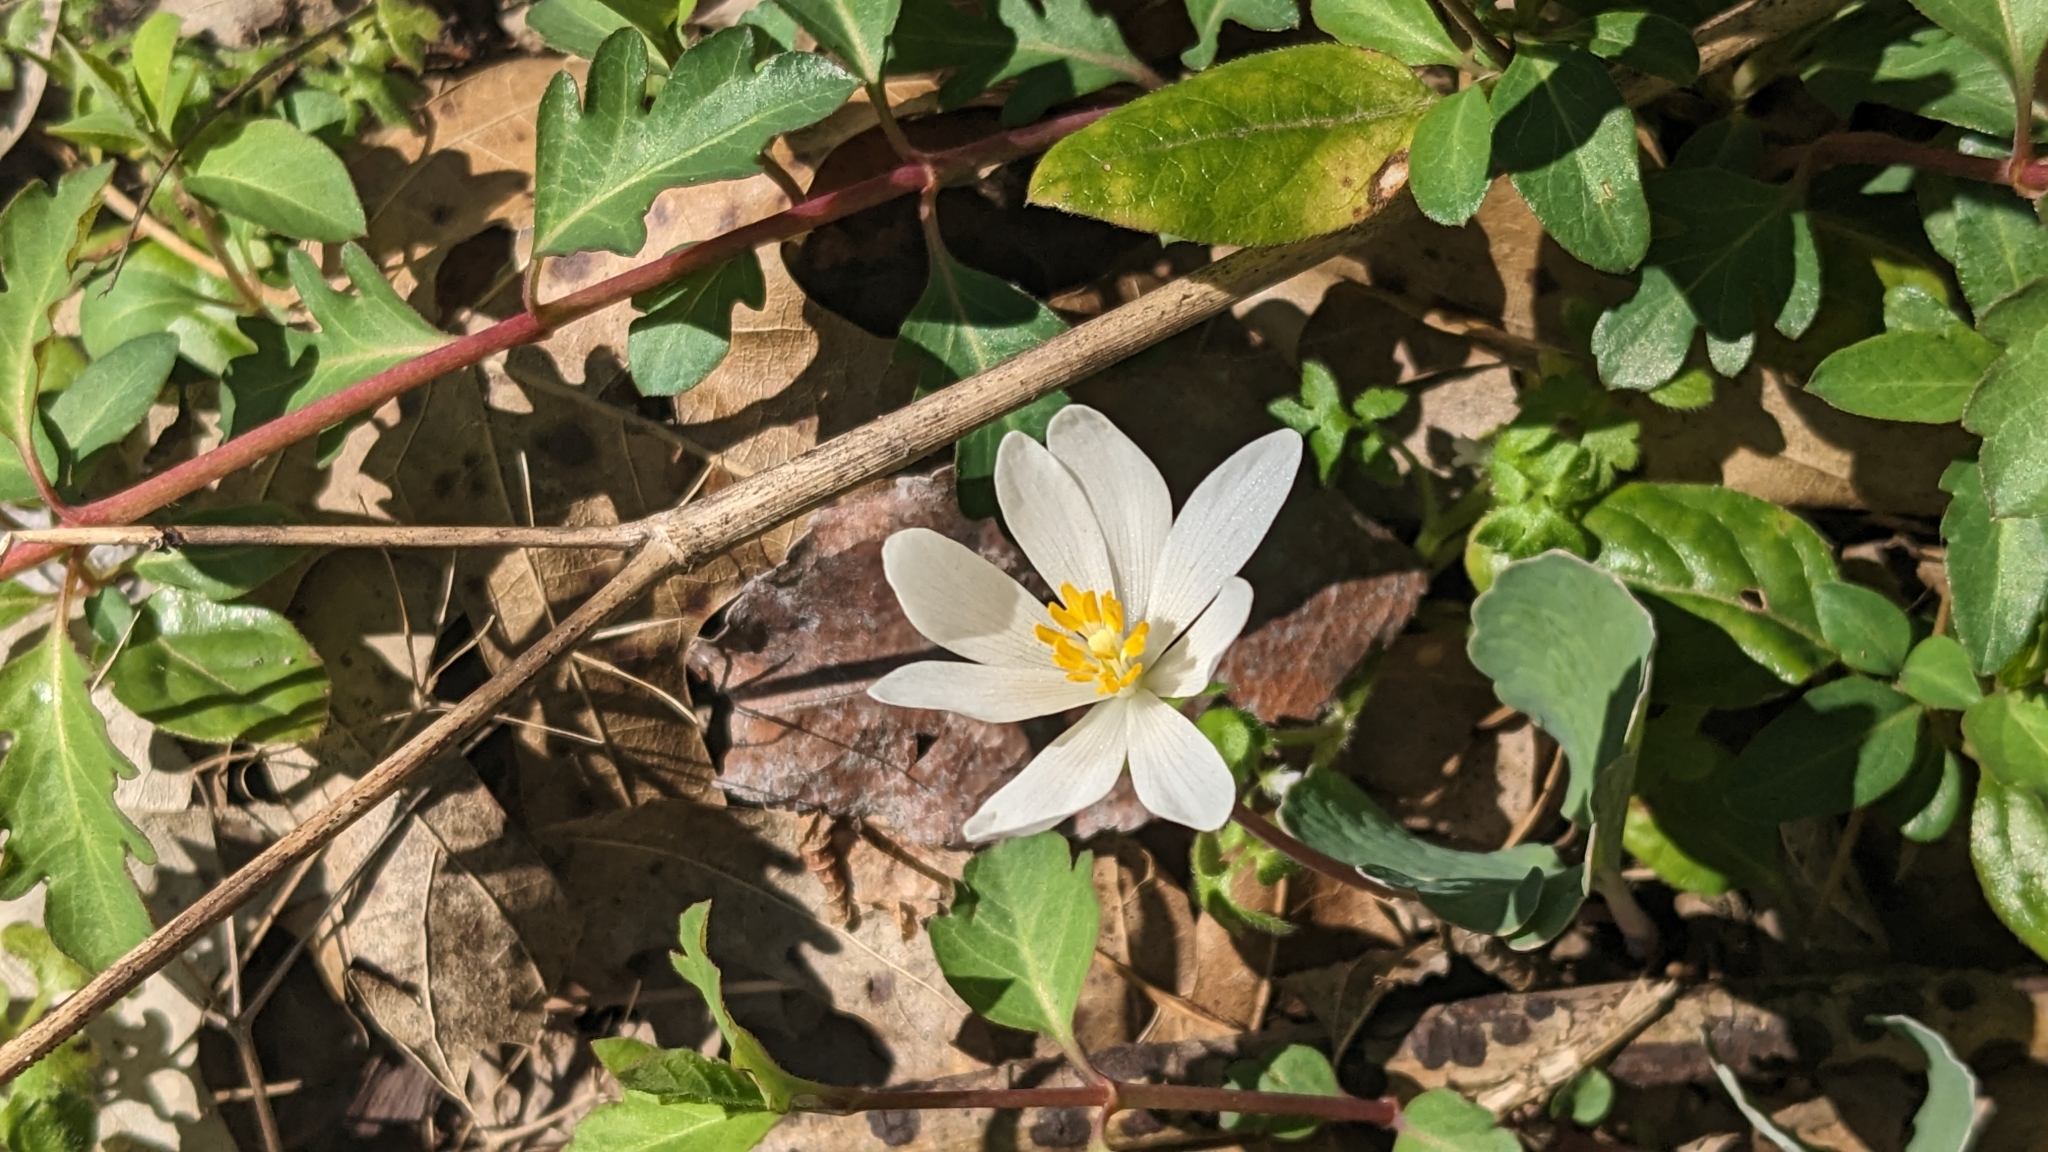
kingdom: Plantae
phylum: Tracheophyta
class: Magnoliopsida
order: Ranunculales
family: Papaveraceae
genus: Sanguinaria
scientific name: Sanguinaria canadensis
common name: Bloodroot
